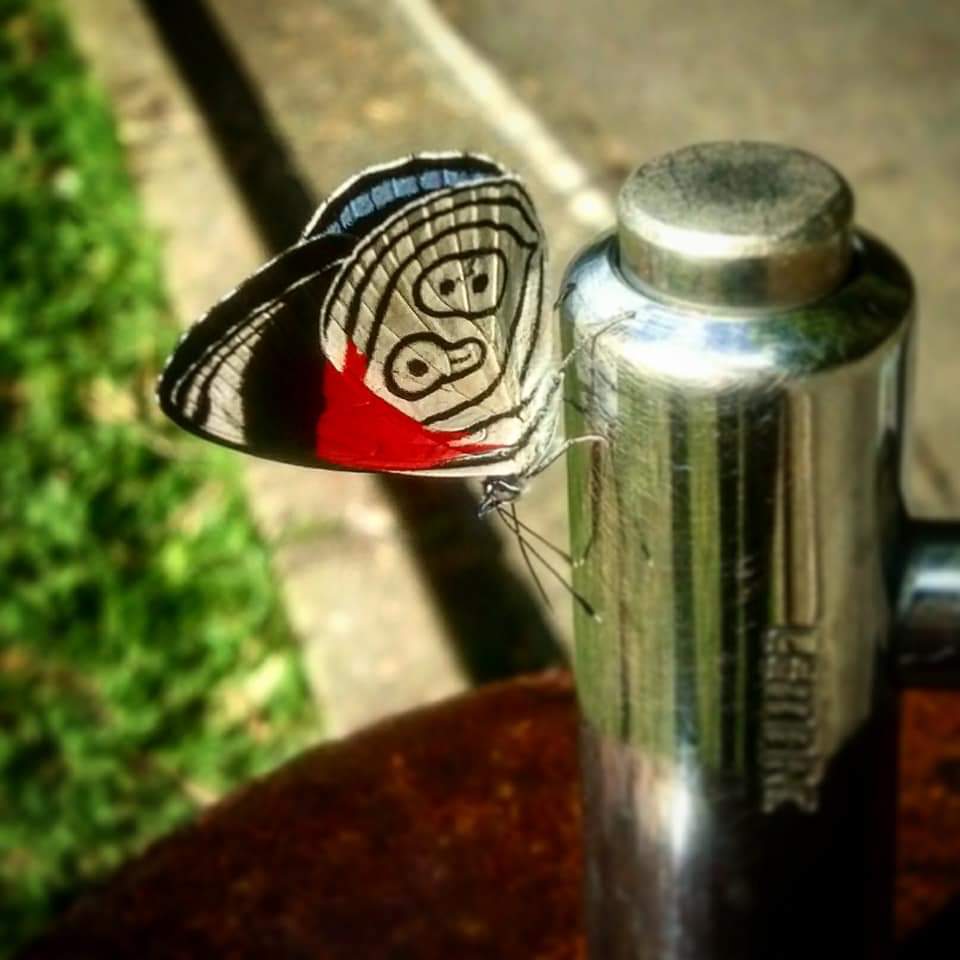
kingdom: Animalia
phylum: Arthropoda
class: Insecta
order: Lepidoptera
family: Nymphalidae
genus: Diaethria
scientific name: Diaethria eluina
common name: Eluina eighty-eight
